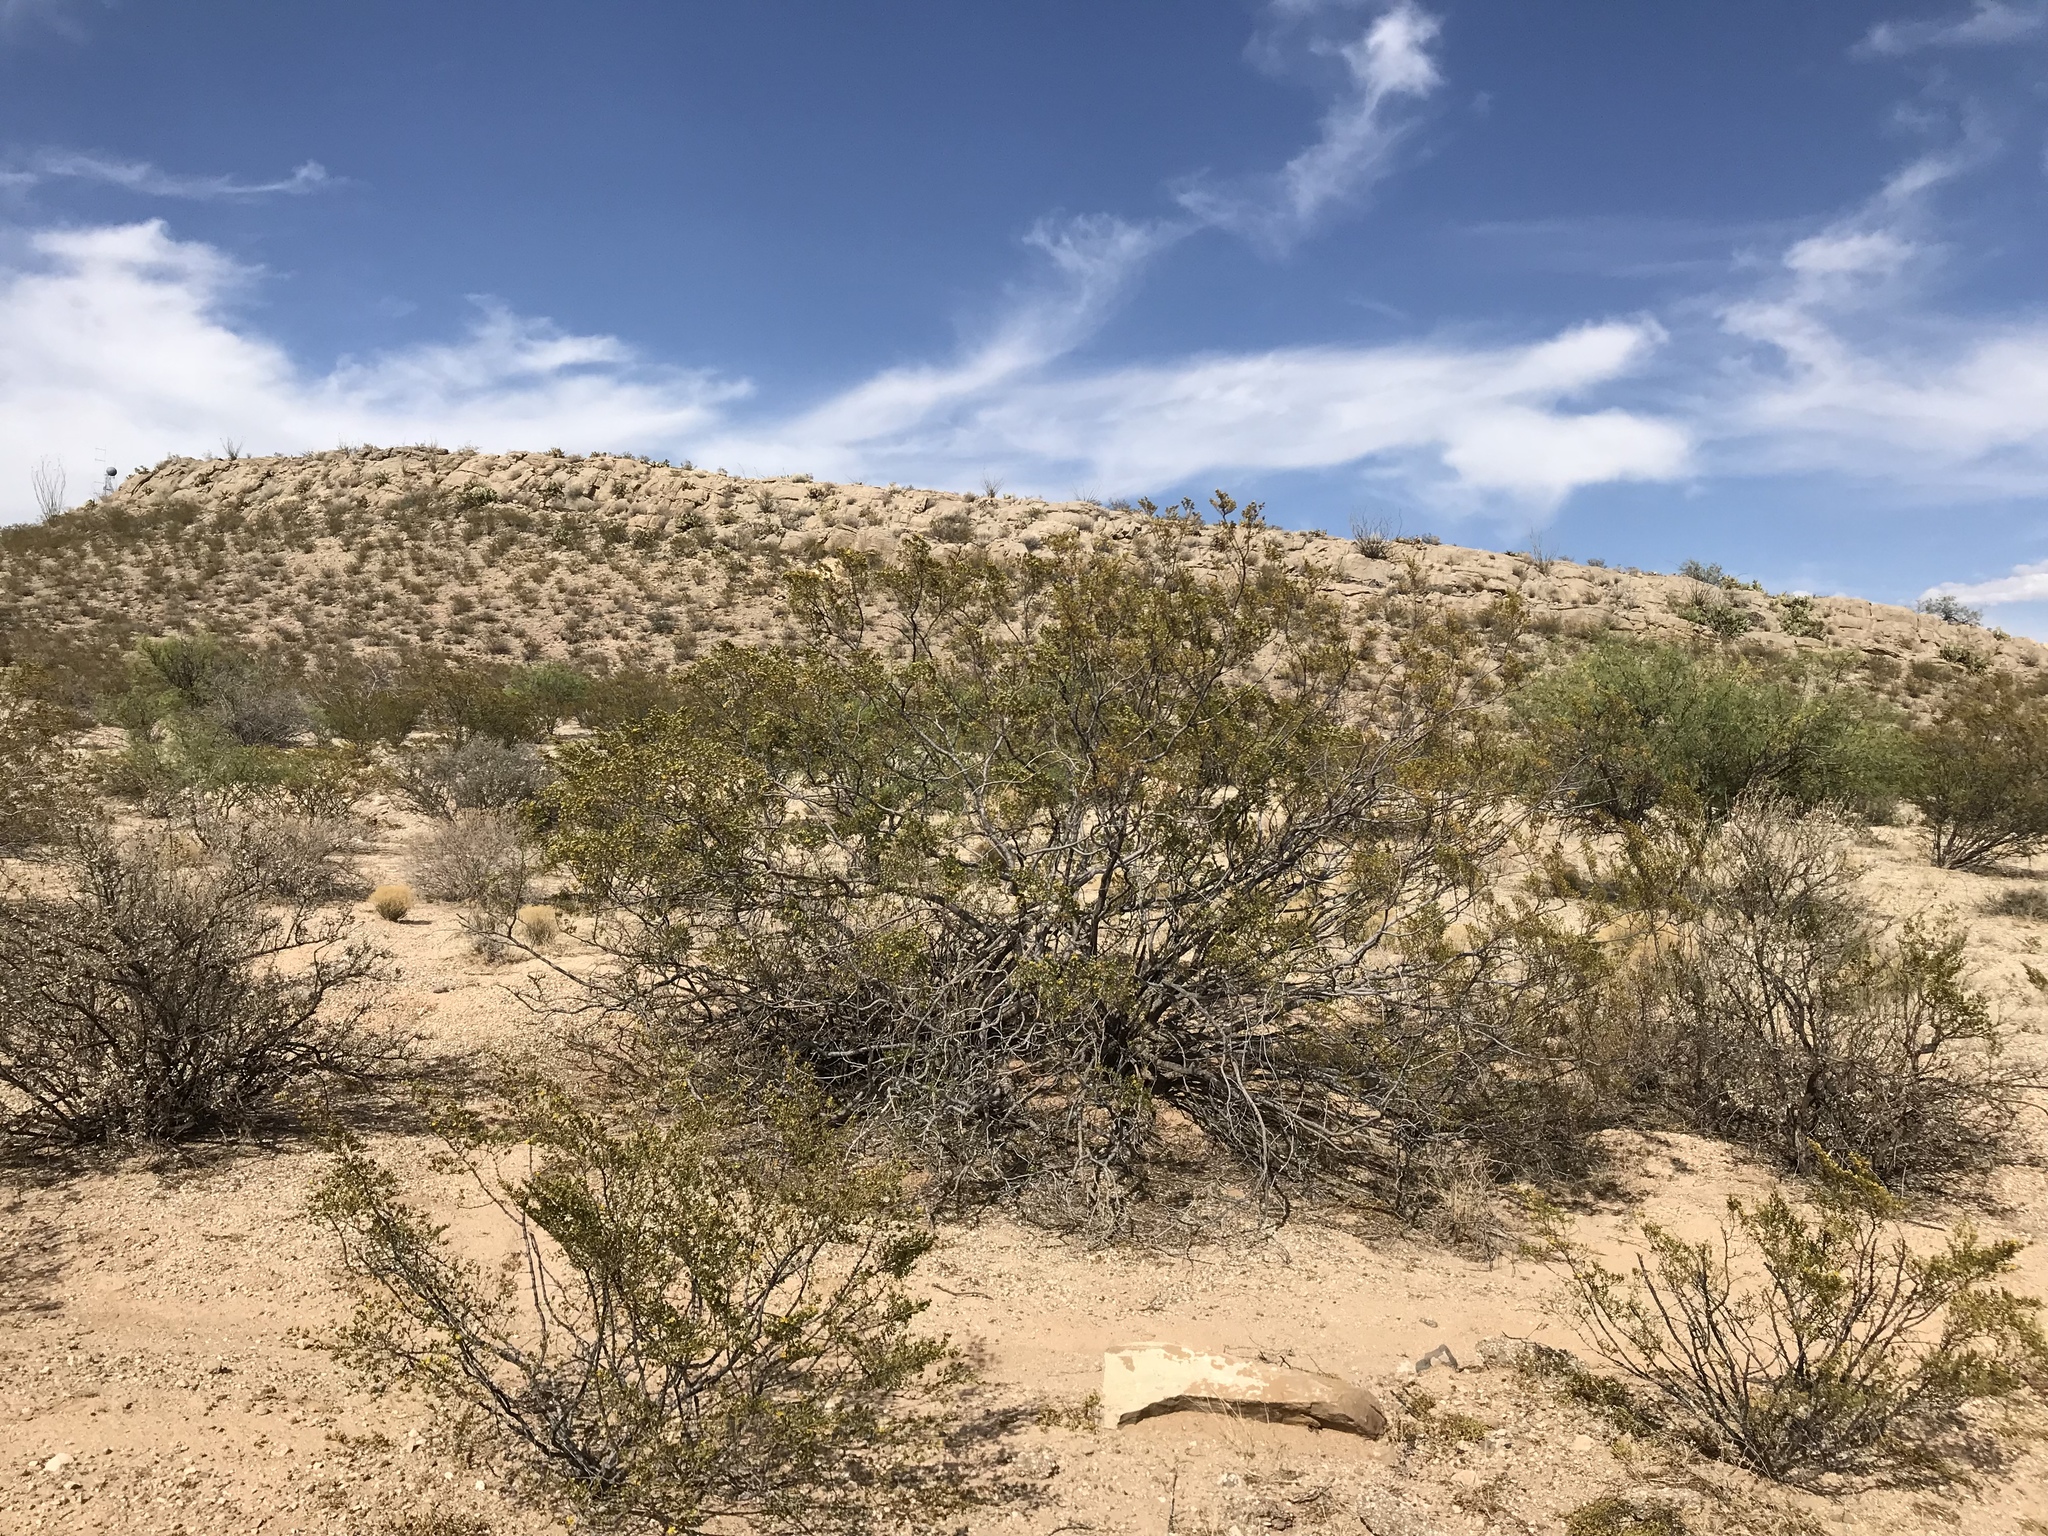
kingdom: Plantae
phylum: Tracheophyta
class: Magnoliopsida
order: Zygophyllales
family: Zygophyllaceae
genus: Larrea
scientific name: Larrea tridentata
